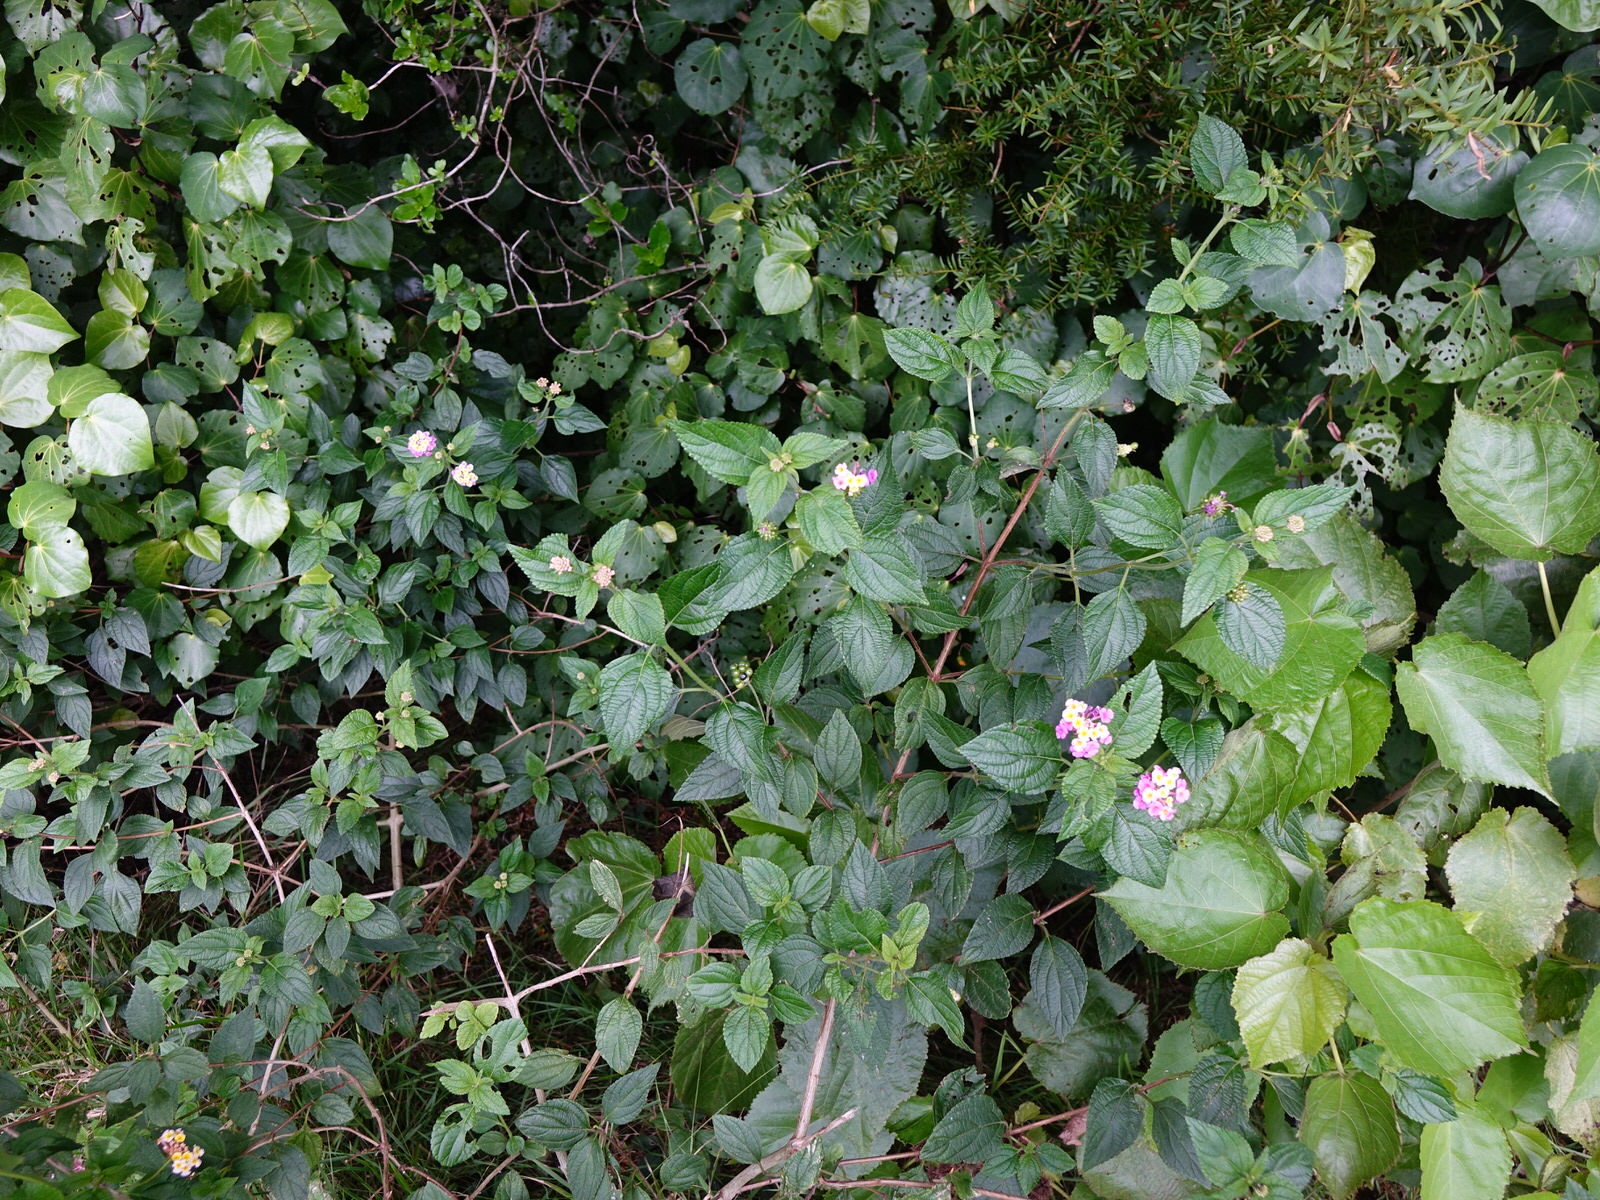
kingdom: Plantae
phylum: Tracheophyta
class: Magnoliopsida
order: Lamiales
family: Verbenaceae
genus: Lantana
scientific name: Lantana camara
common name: Lantana
